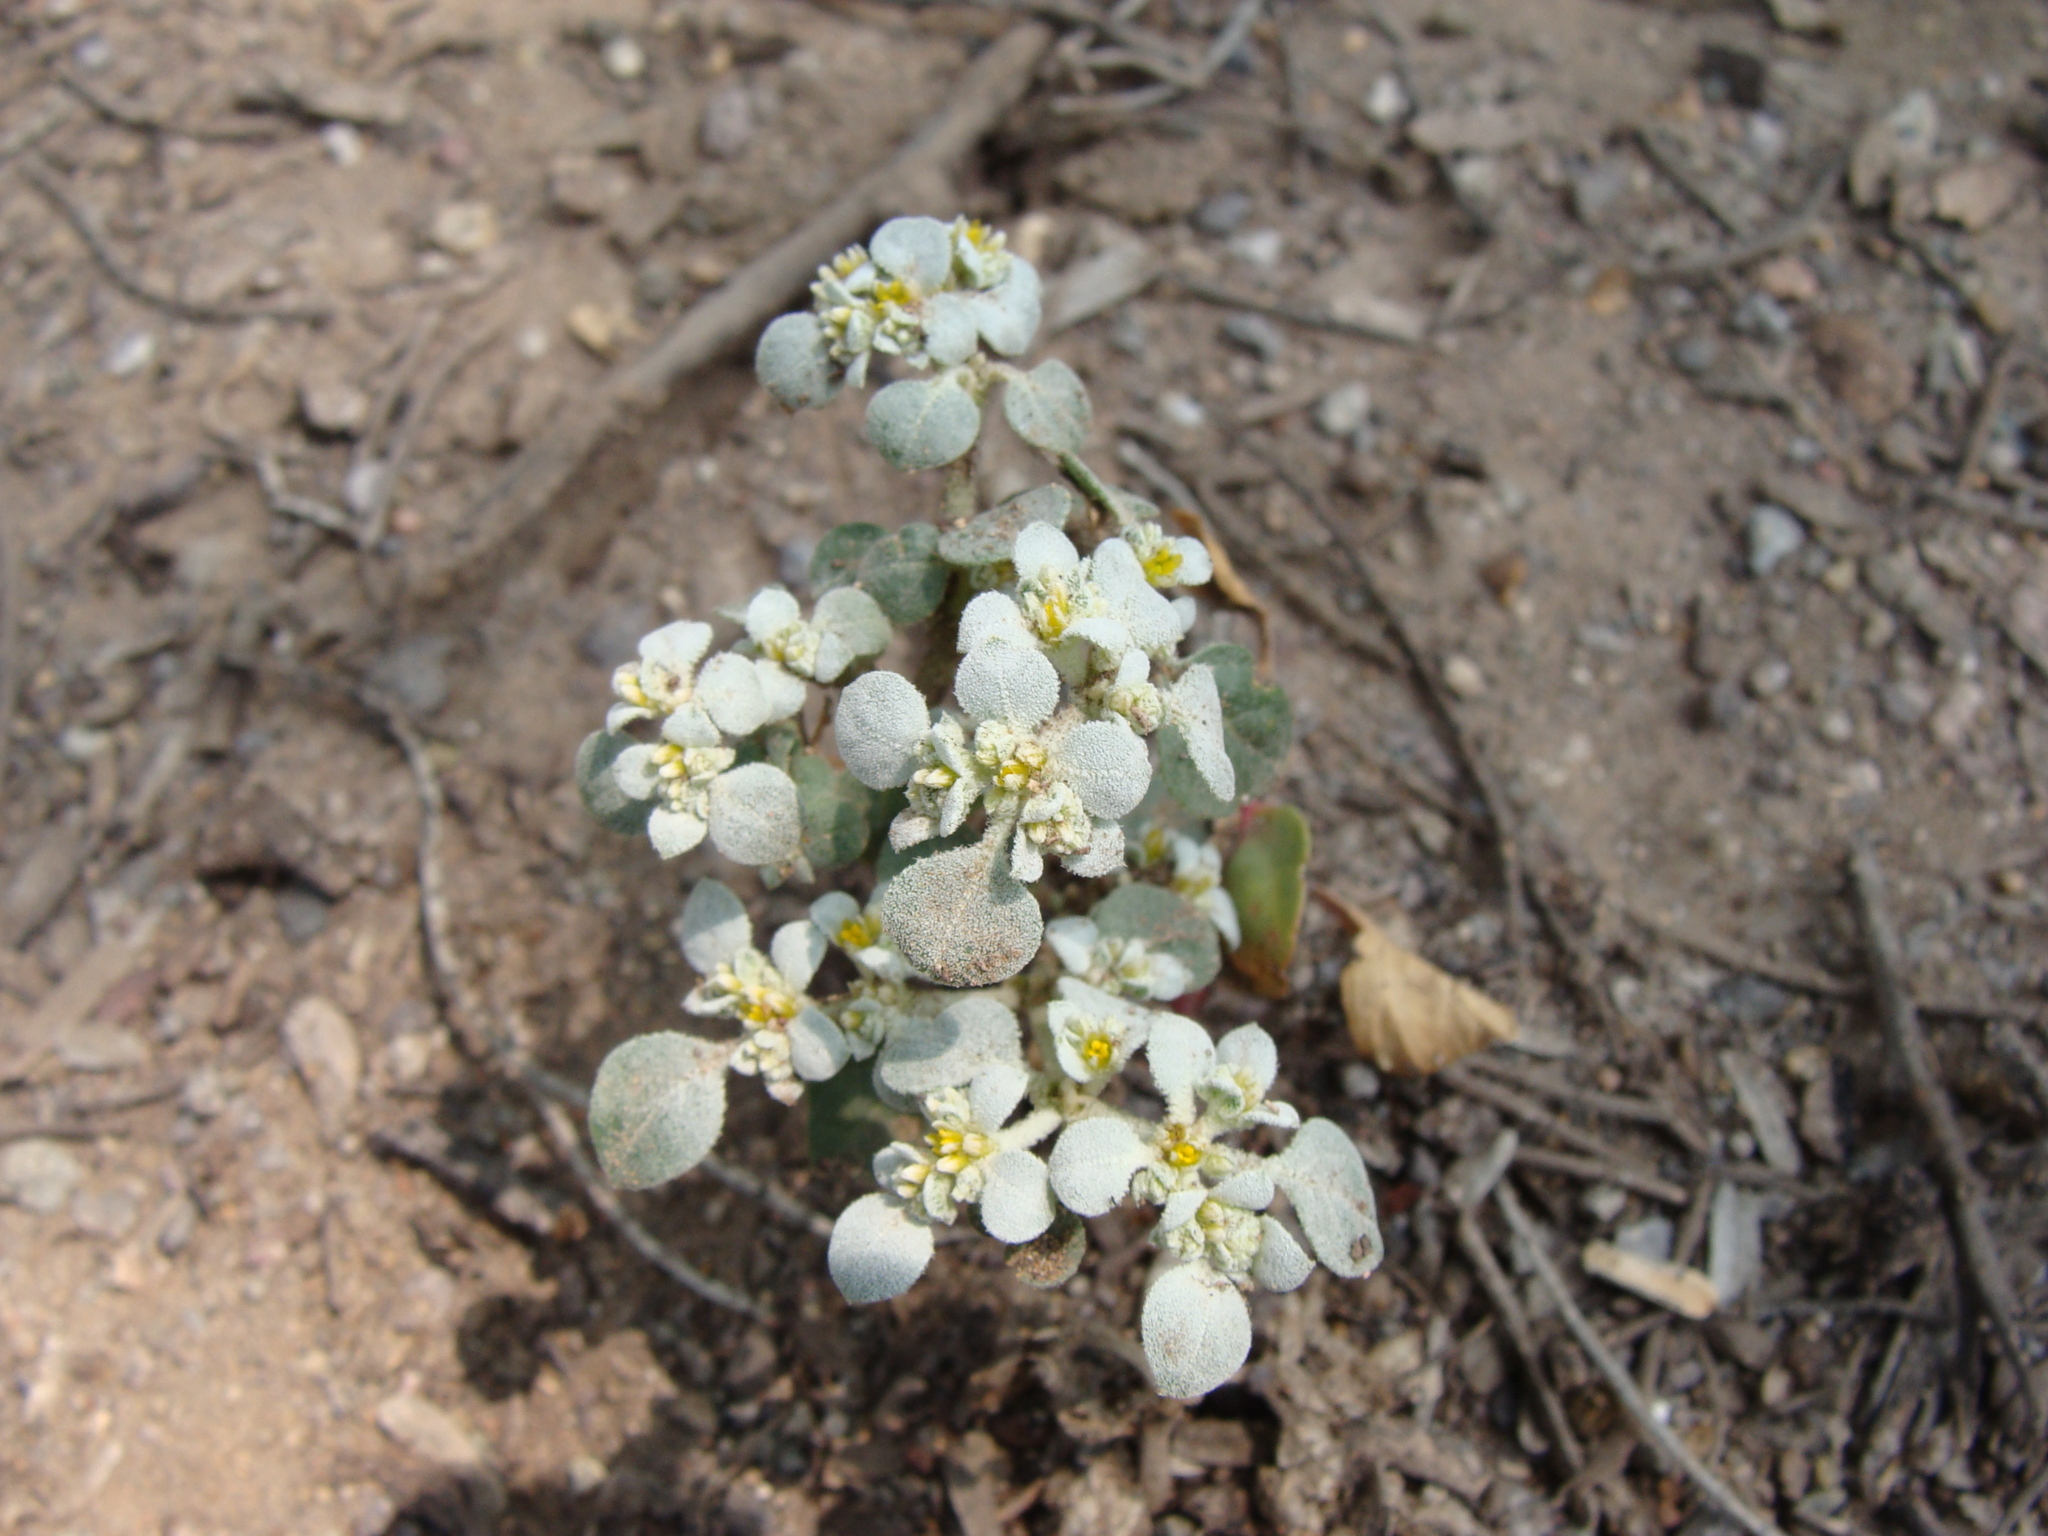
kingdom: Plantae
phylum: Tracheophyta
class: Magnoliopsida
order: Caryophyllales
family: Amaranthaceae
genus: Tidestromia
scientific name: Tidestromia lanuginosa
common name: Woolly tidestromia
